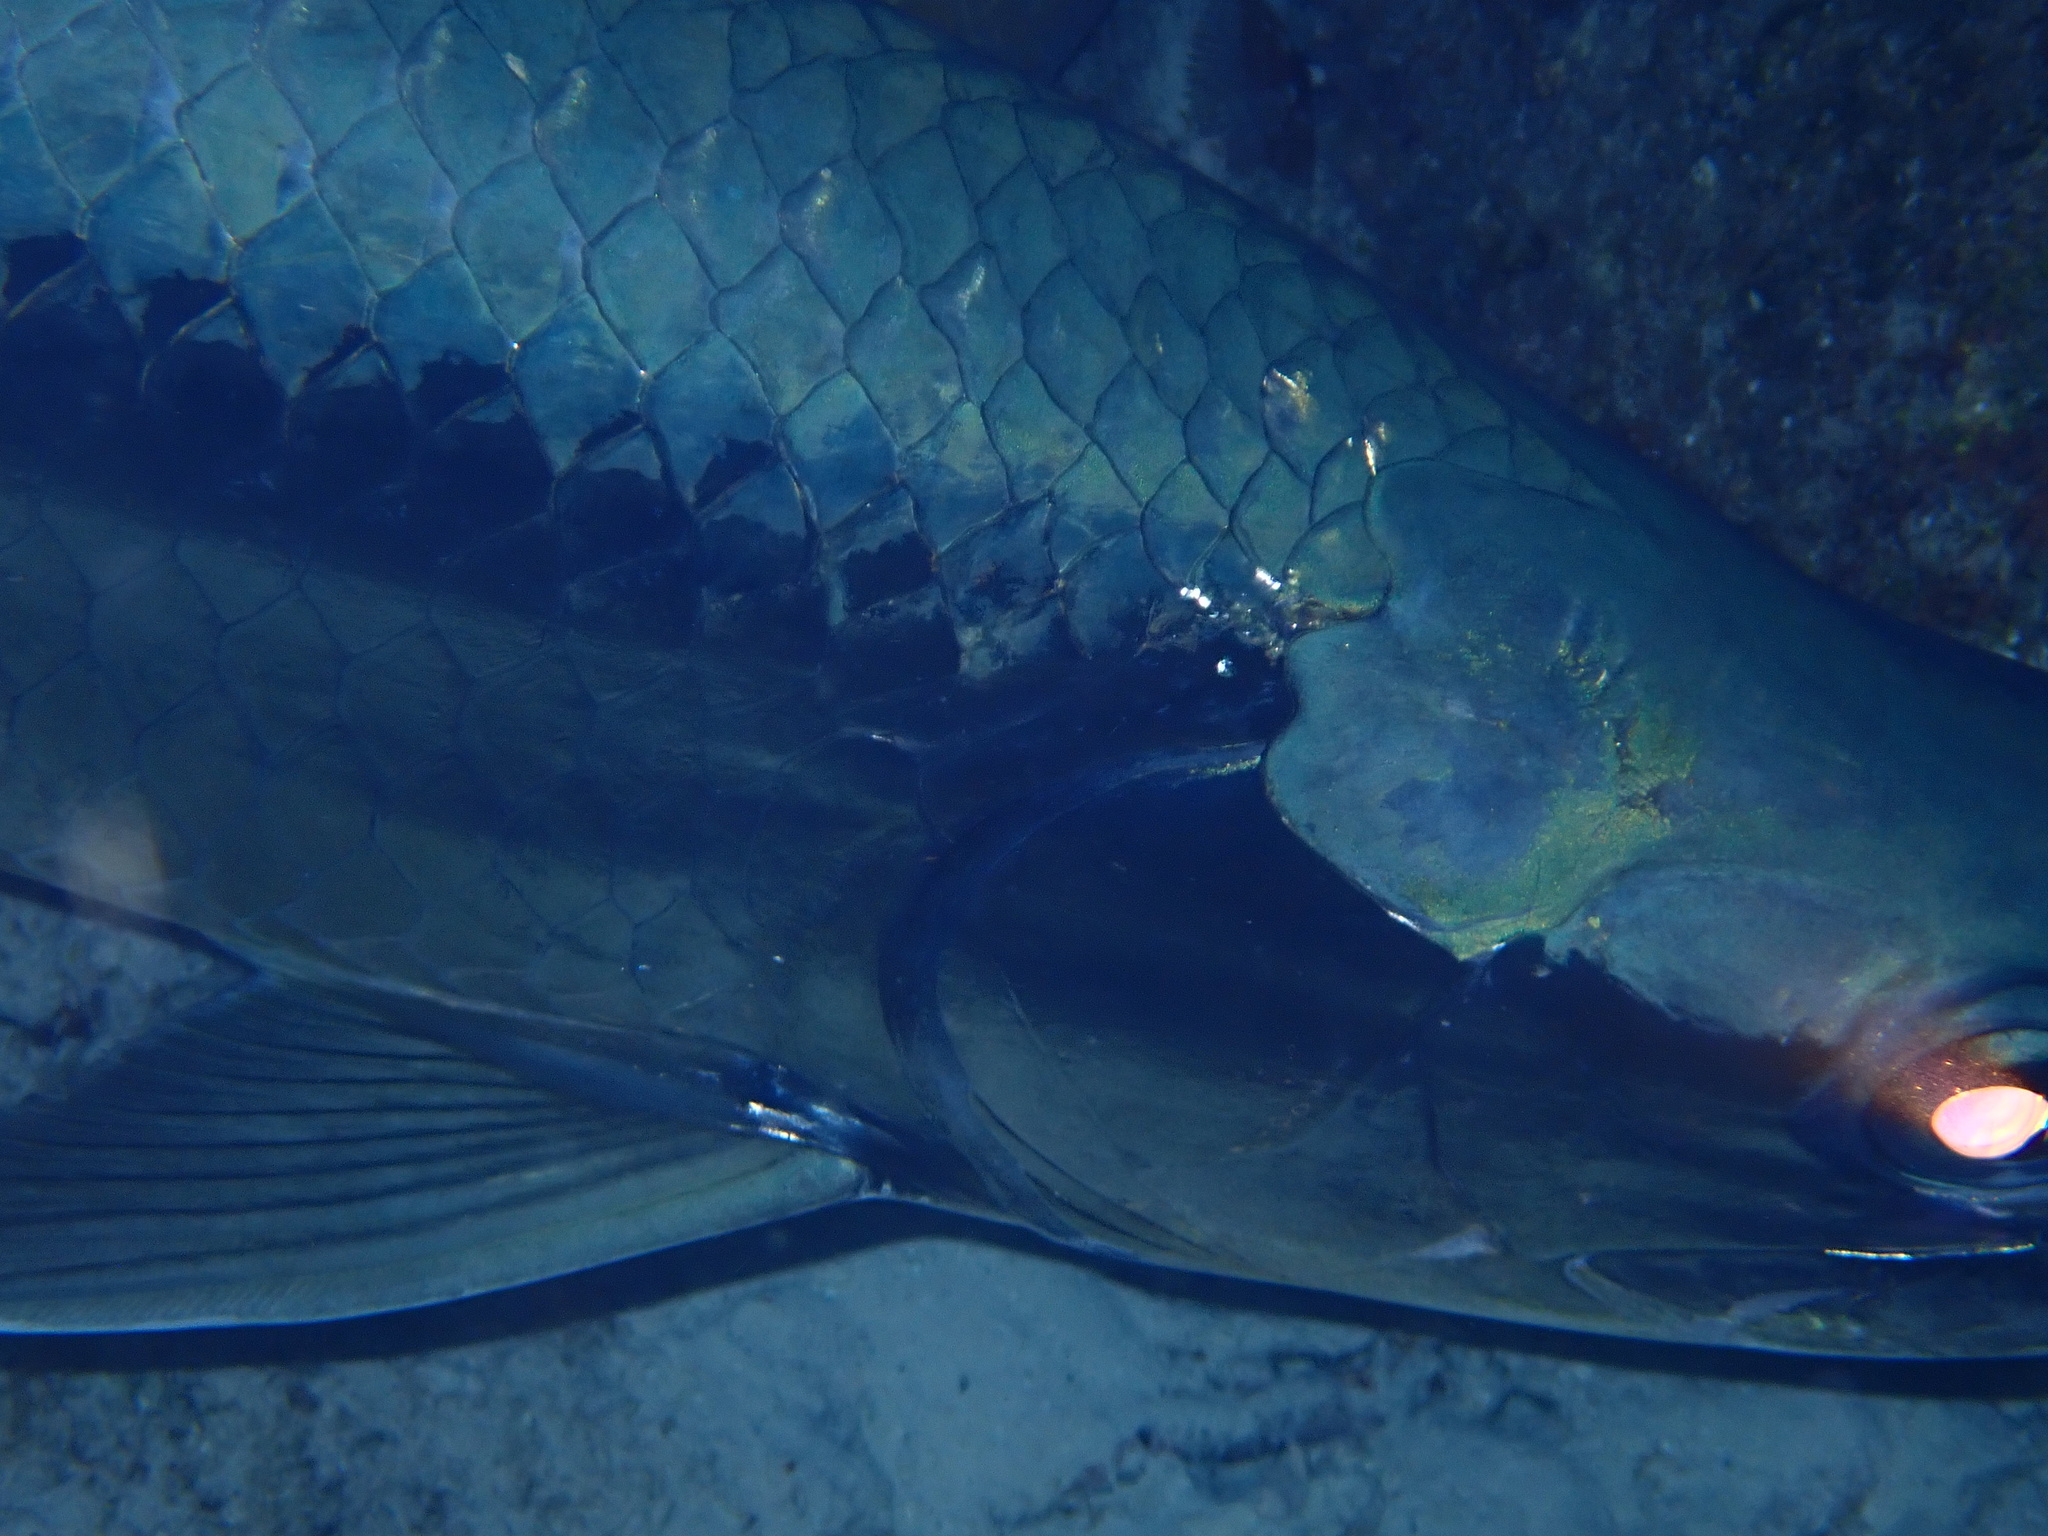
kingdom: Animalia
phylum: Chordata
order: Elopiformes
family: Megalopidae
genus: Megalops
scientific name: Megalops atlanticus
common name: Tarpon
